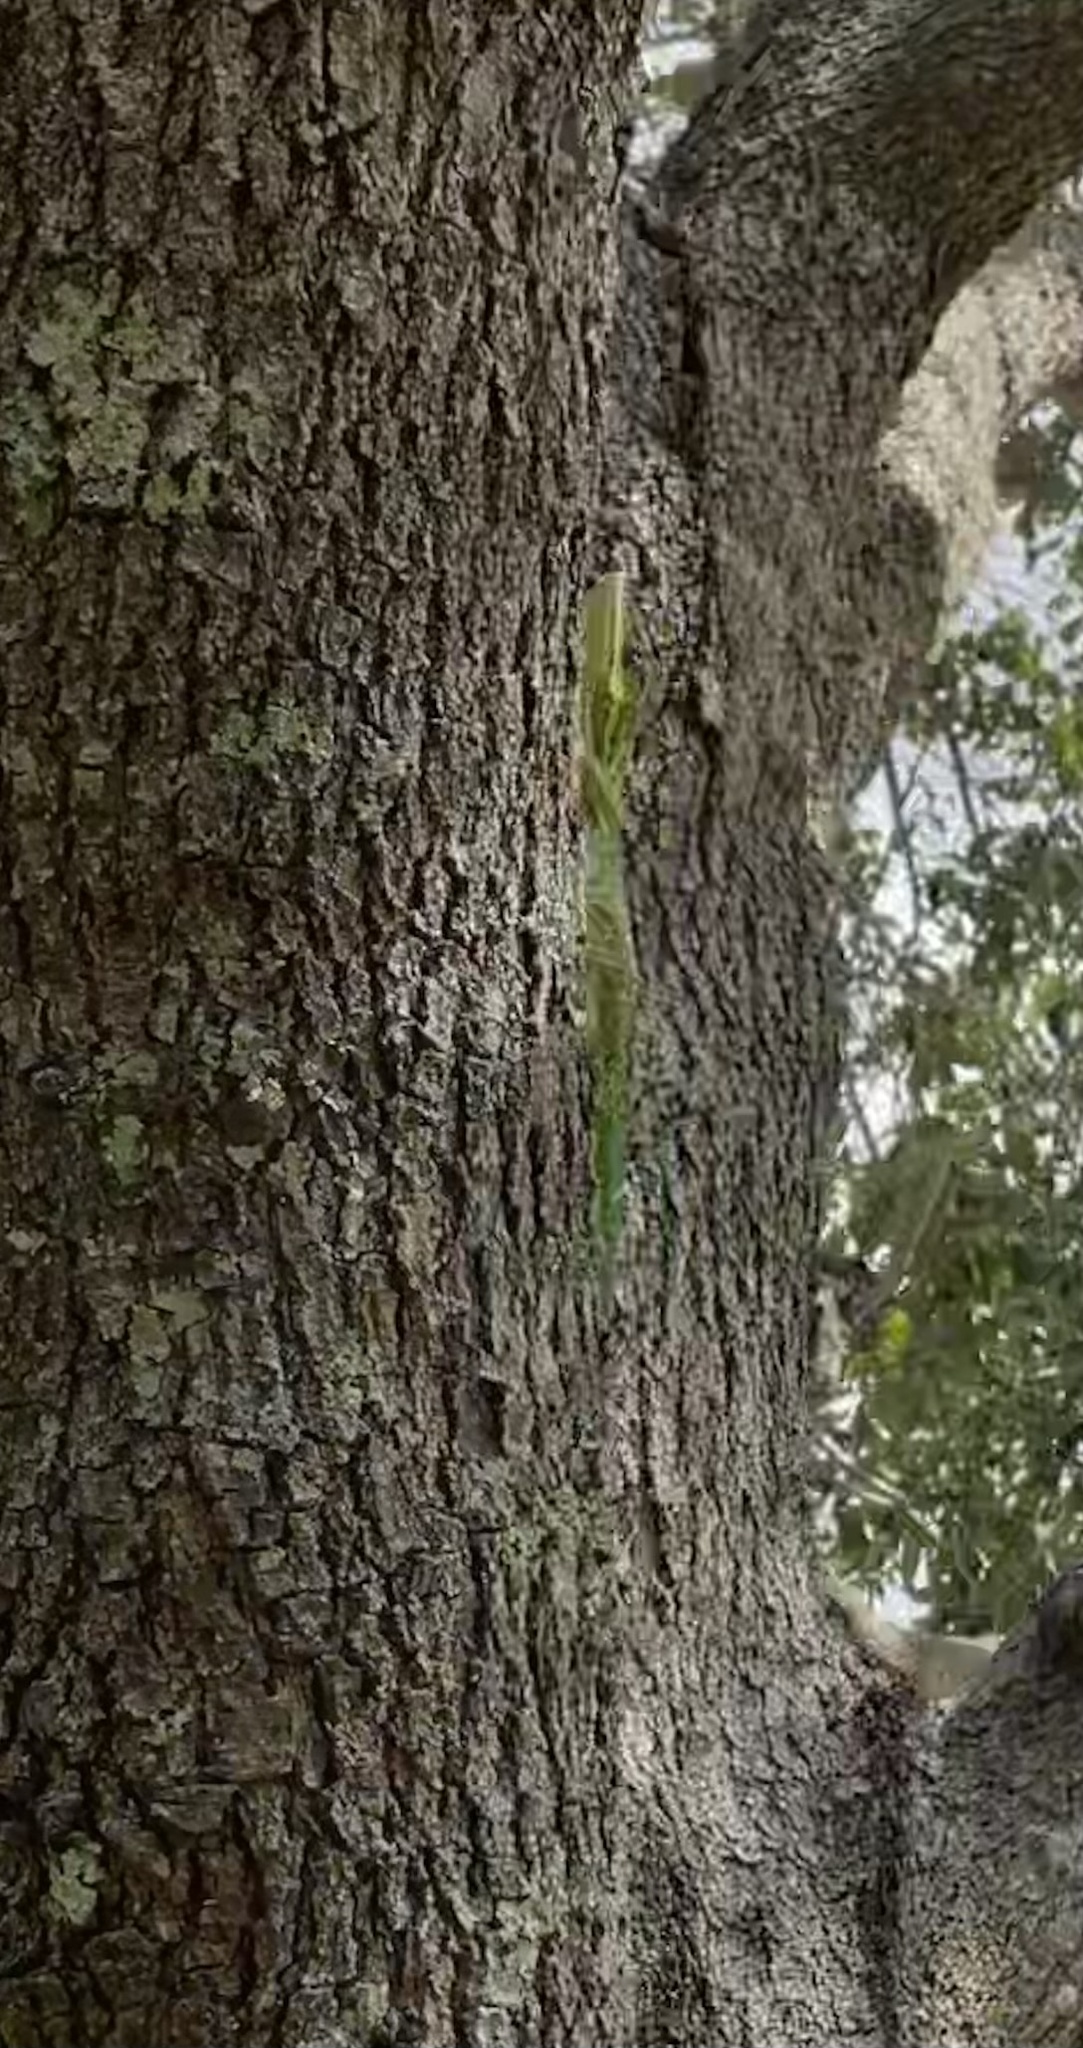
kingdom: Animalia
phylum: Chordata
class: Squamata
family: Dactyloidae
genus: Anolis
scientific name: Anolis equestris
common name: Knight anole
